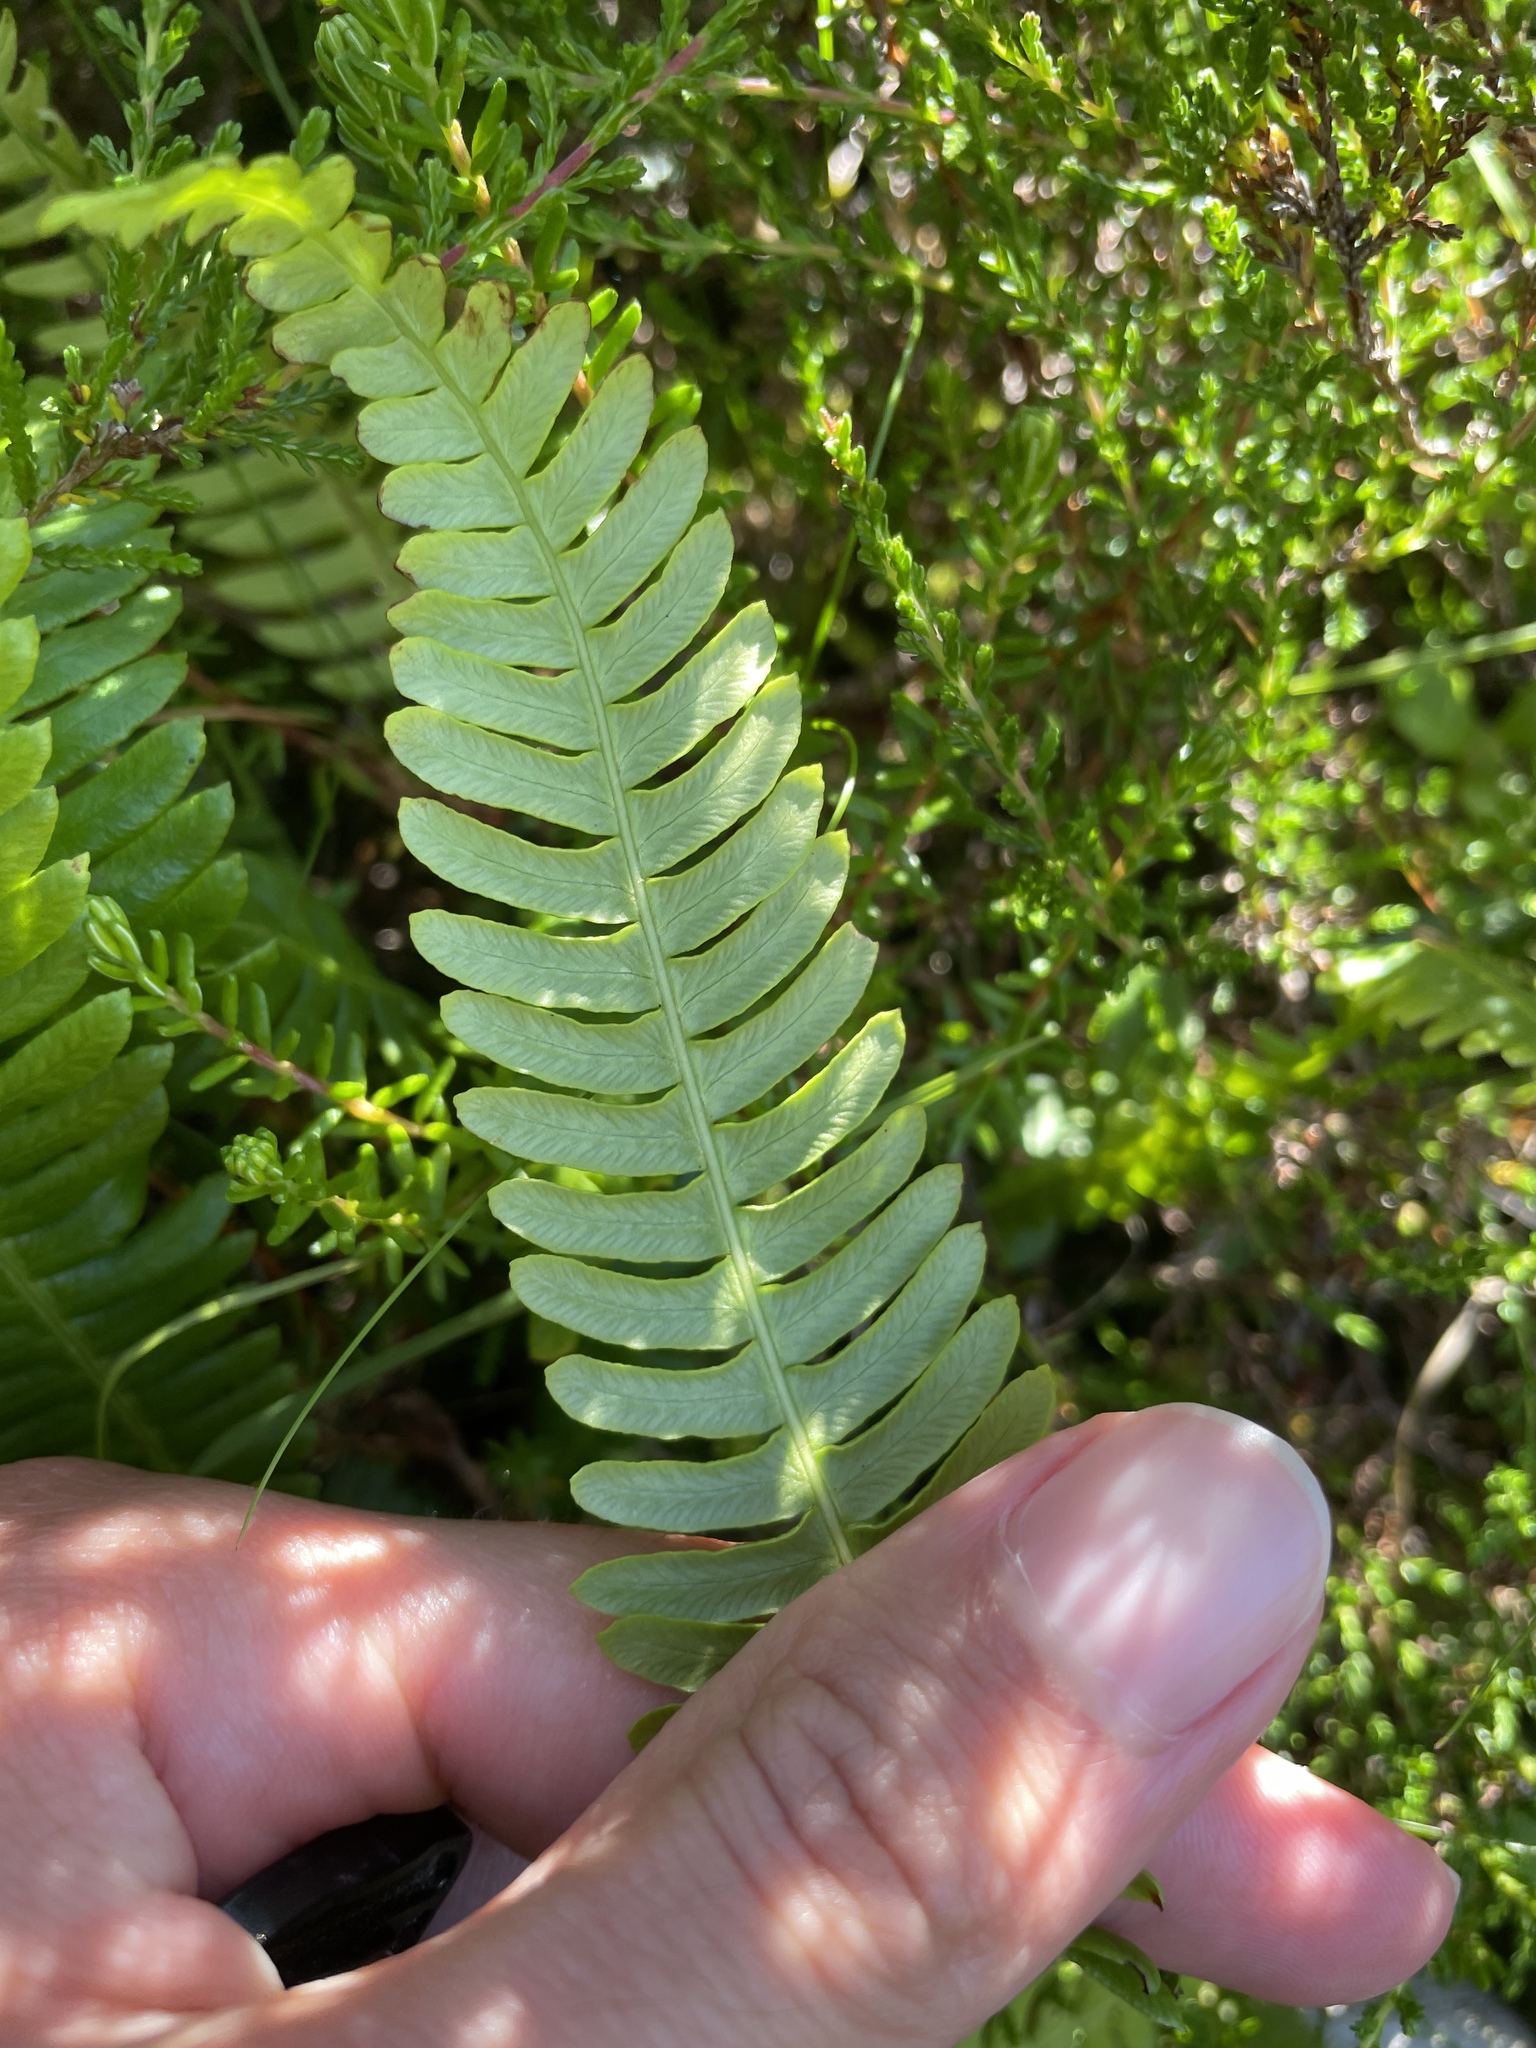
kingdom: Plantae
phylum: Tracheophyta
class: Polypodiopsida
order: Polypodiales
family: Blechnaceae
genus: Struthiopteris
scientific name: Struthiopteris spicant
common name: Deer fern
